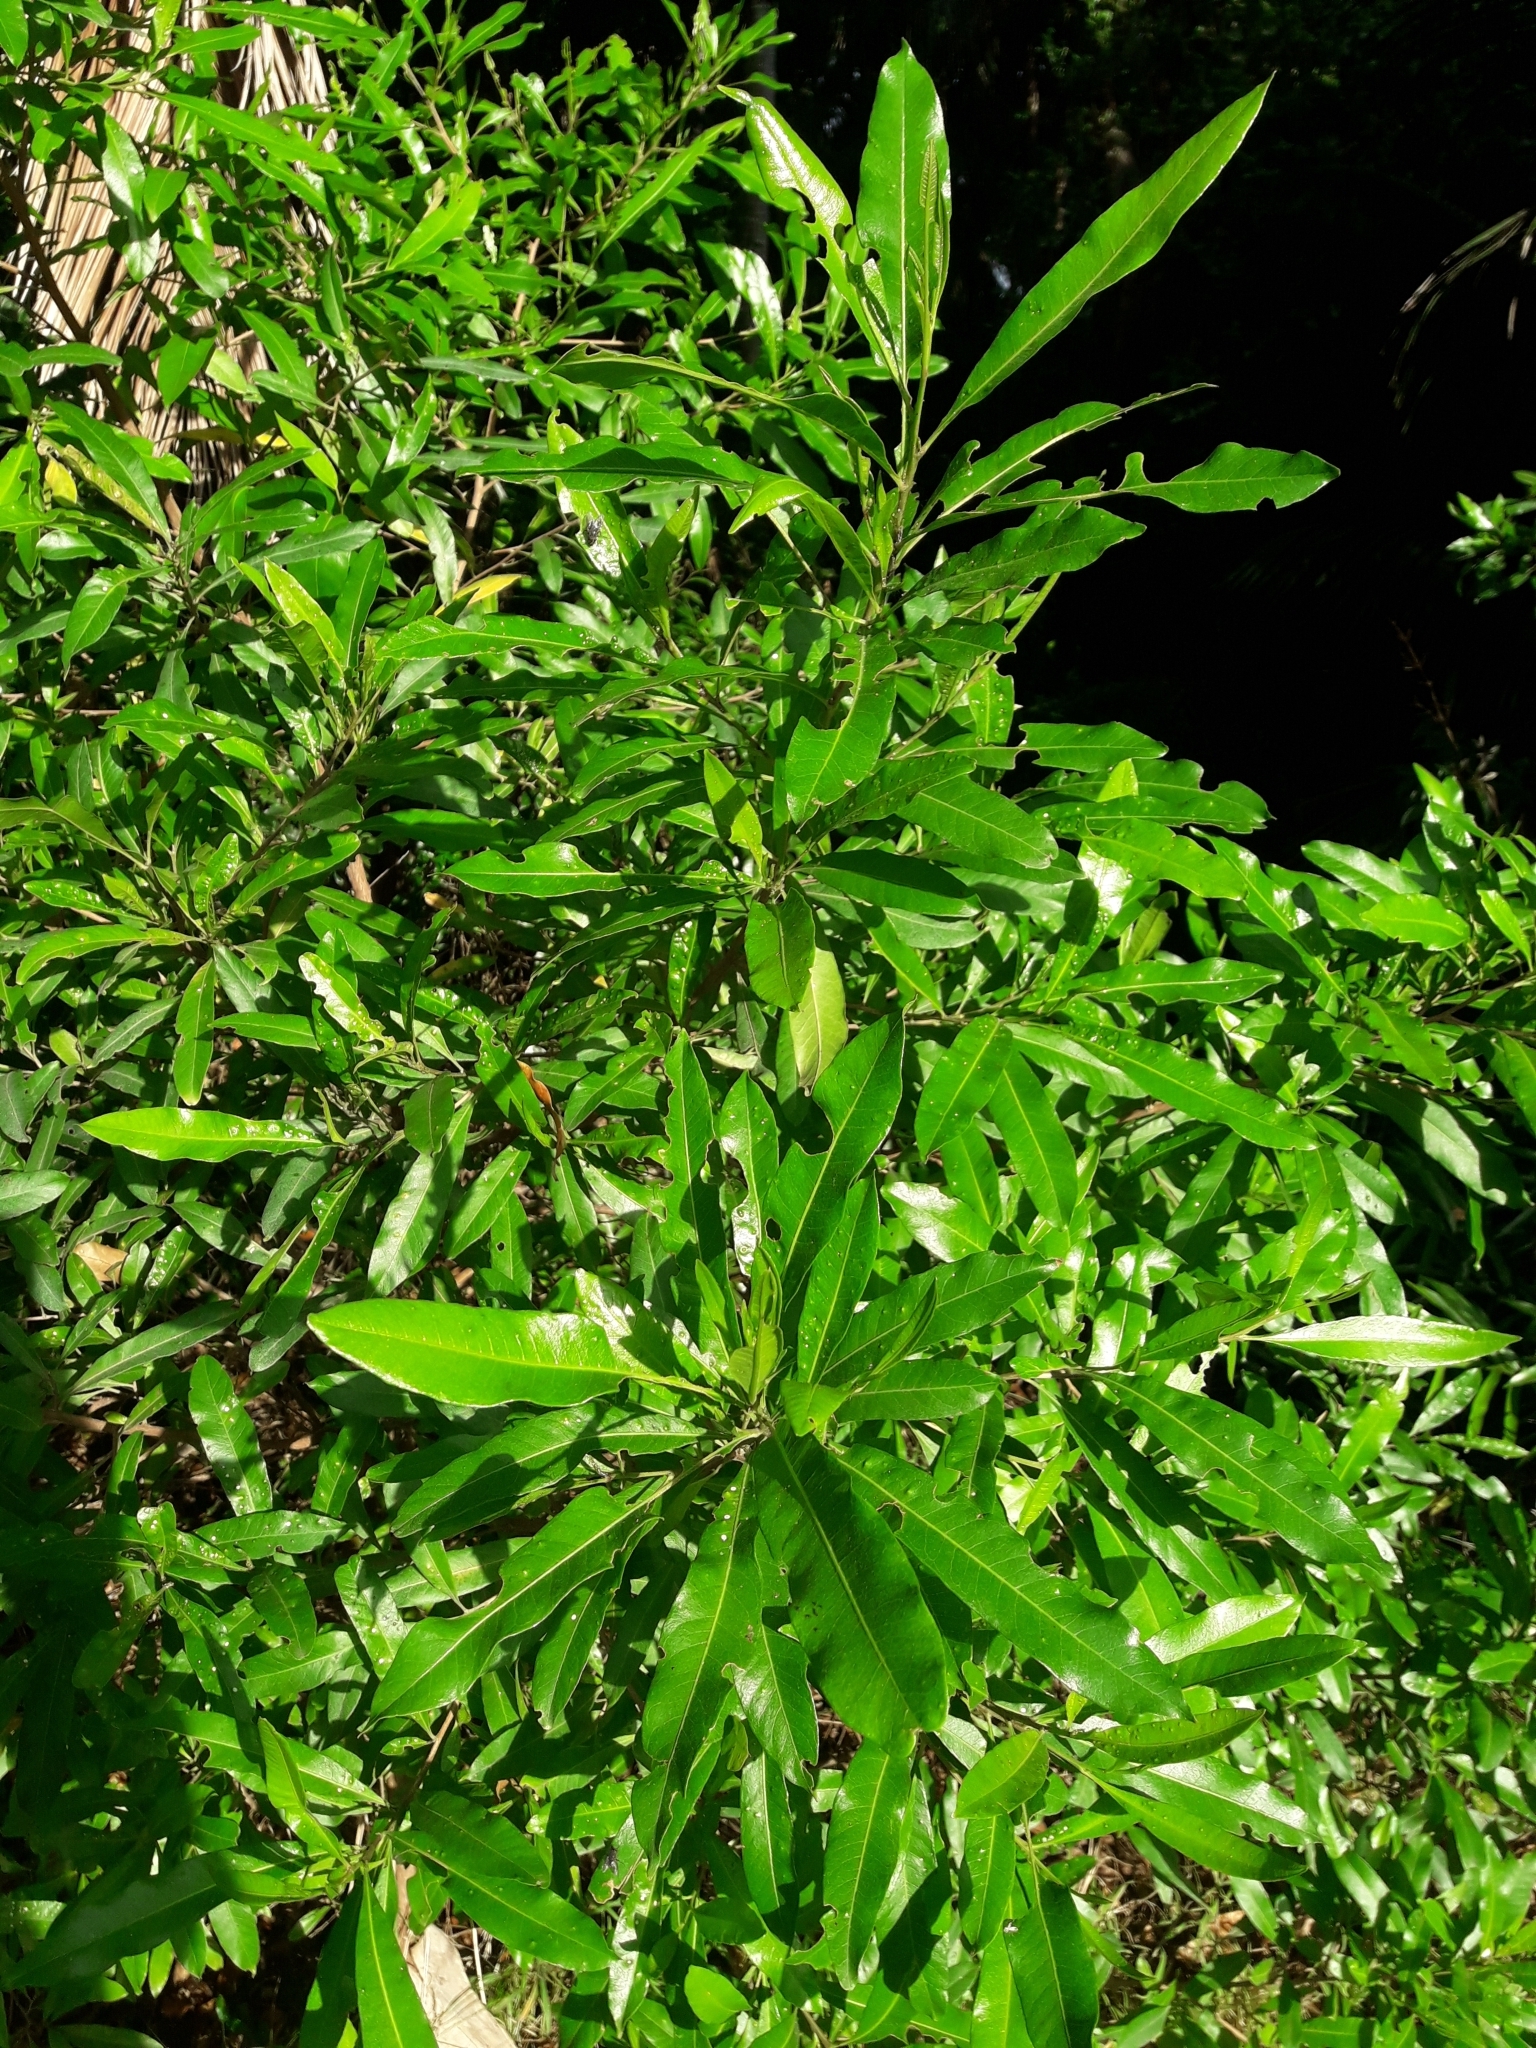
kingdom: Plantae
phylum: Tracheophyta
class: Magnoliopsida
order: Sapindales
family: Sapindaceae
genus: Dodonaea
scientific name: Dodonaea viscosa
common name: Hopbush
